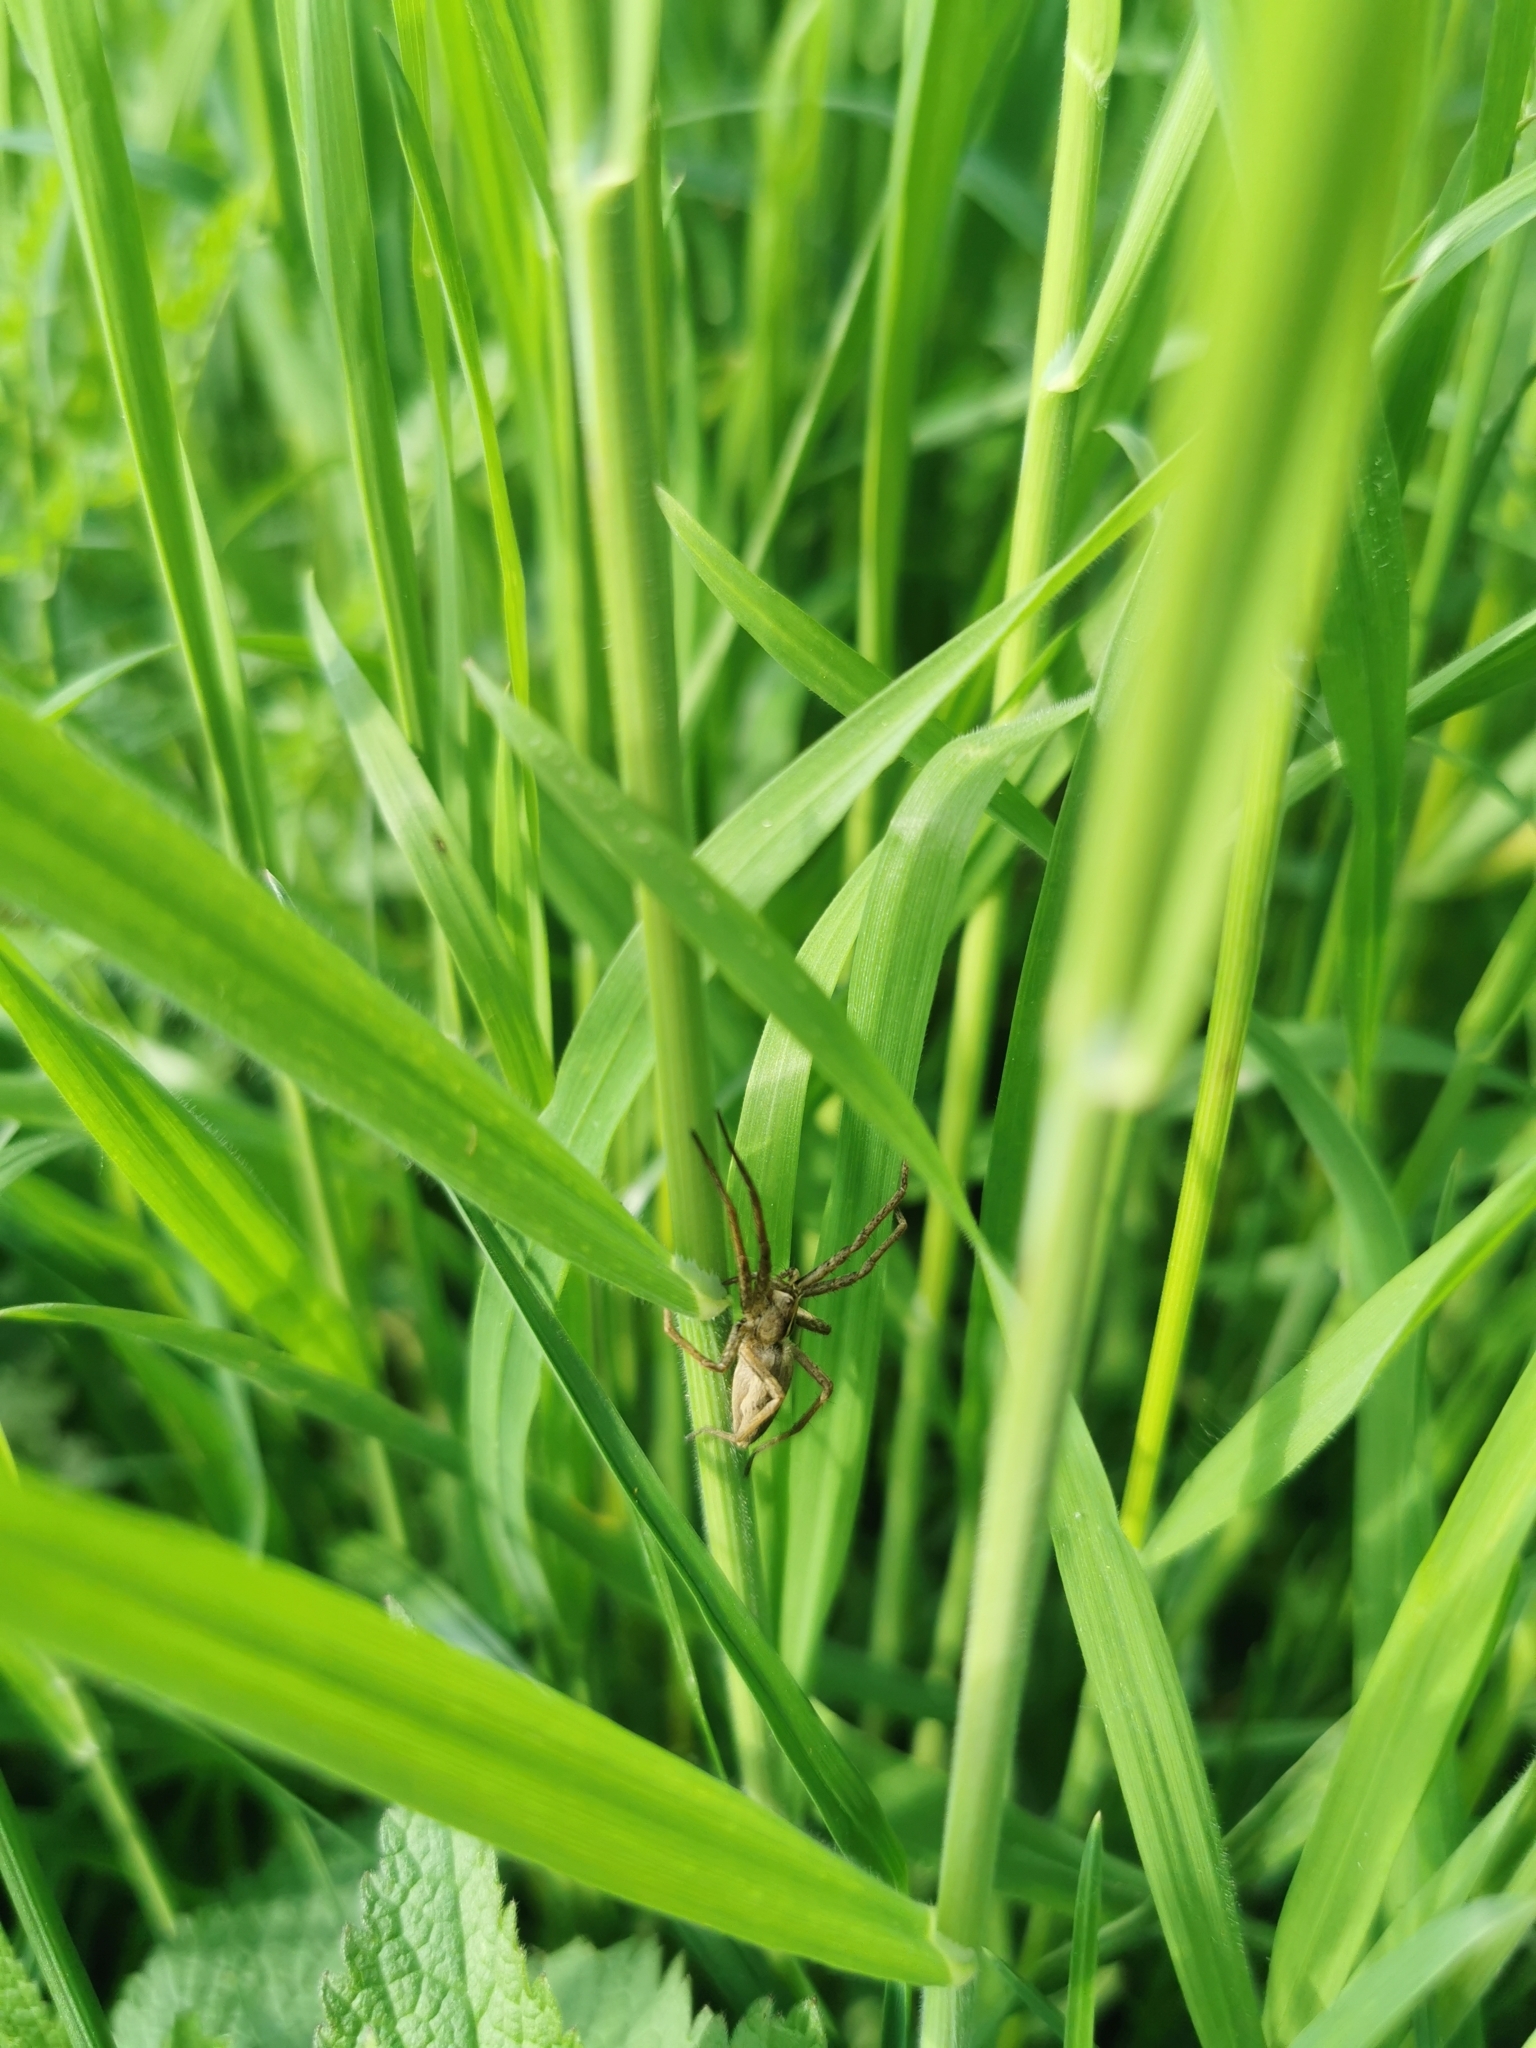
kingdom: Animalia
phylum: Arthropoda
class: Arachnida
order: Araneae
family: Pisauridae
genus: Pisaura
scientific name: Pisaura mirabilis
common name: Tent spider
